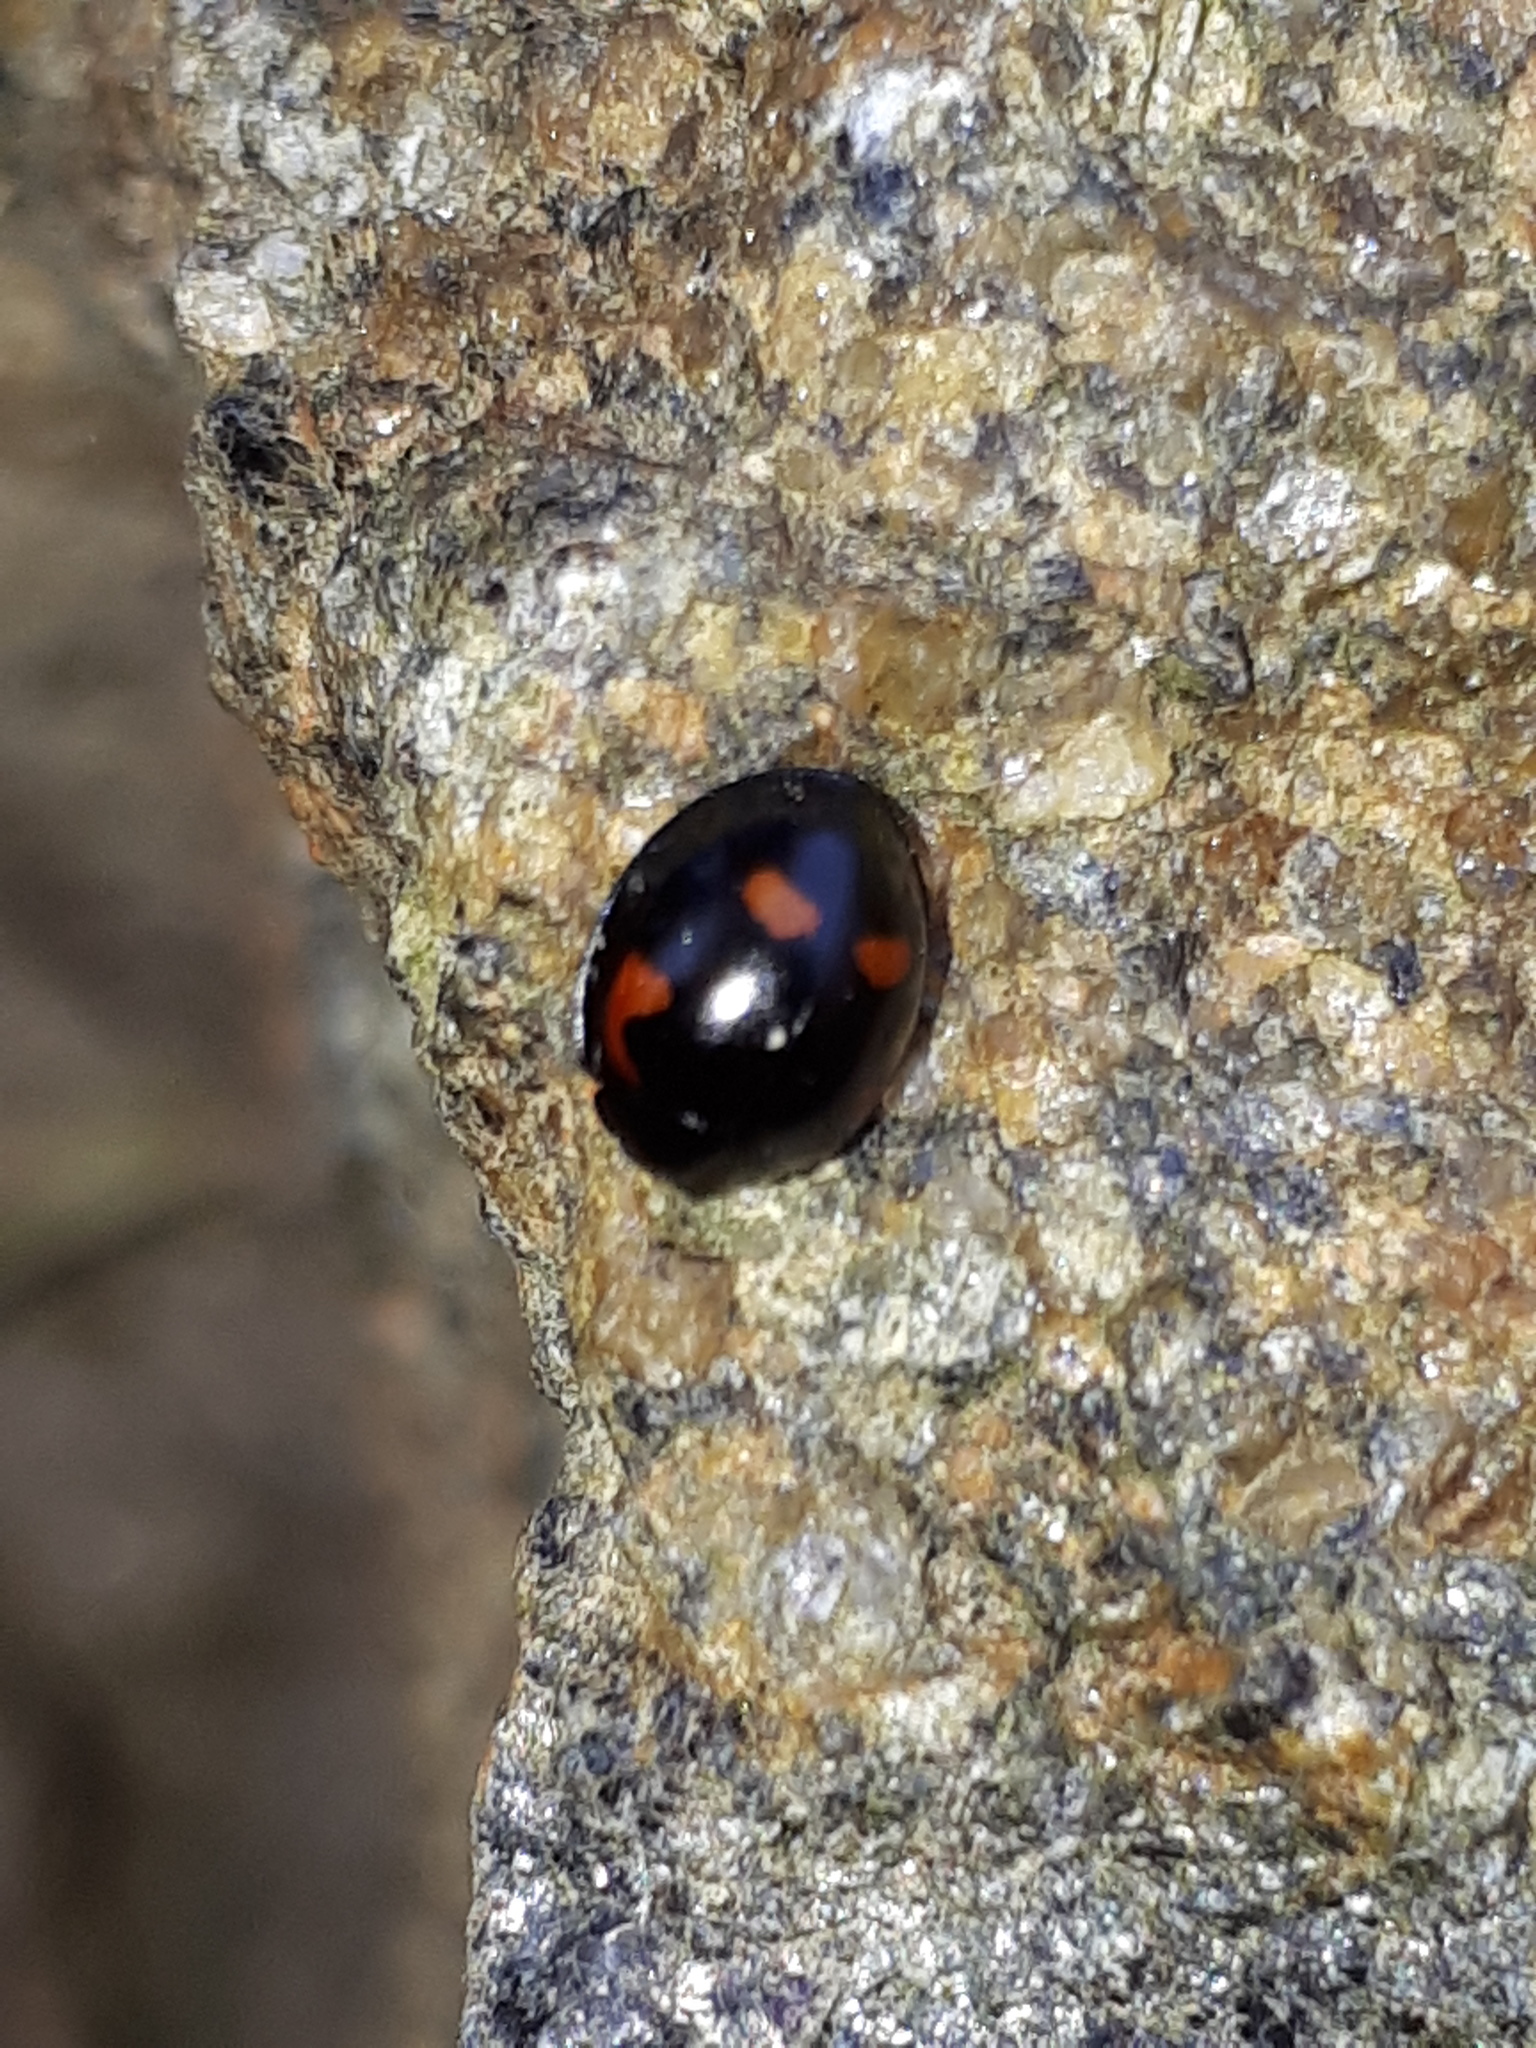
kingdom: Animalia
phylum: Arthropoda
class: Insecta
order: Coleoptera
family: Coccinellidae
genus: Brumus
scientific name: Brumus quadripustulatus
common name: Ladybird beetle
